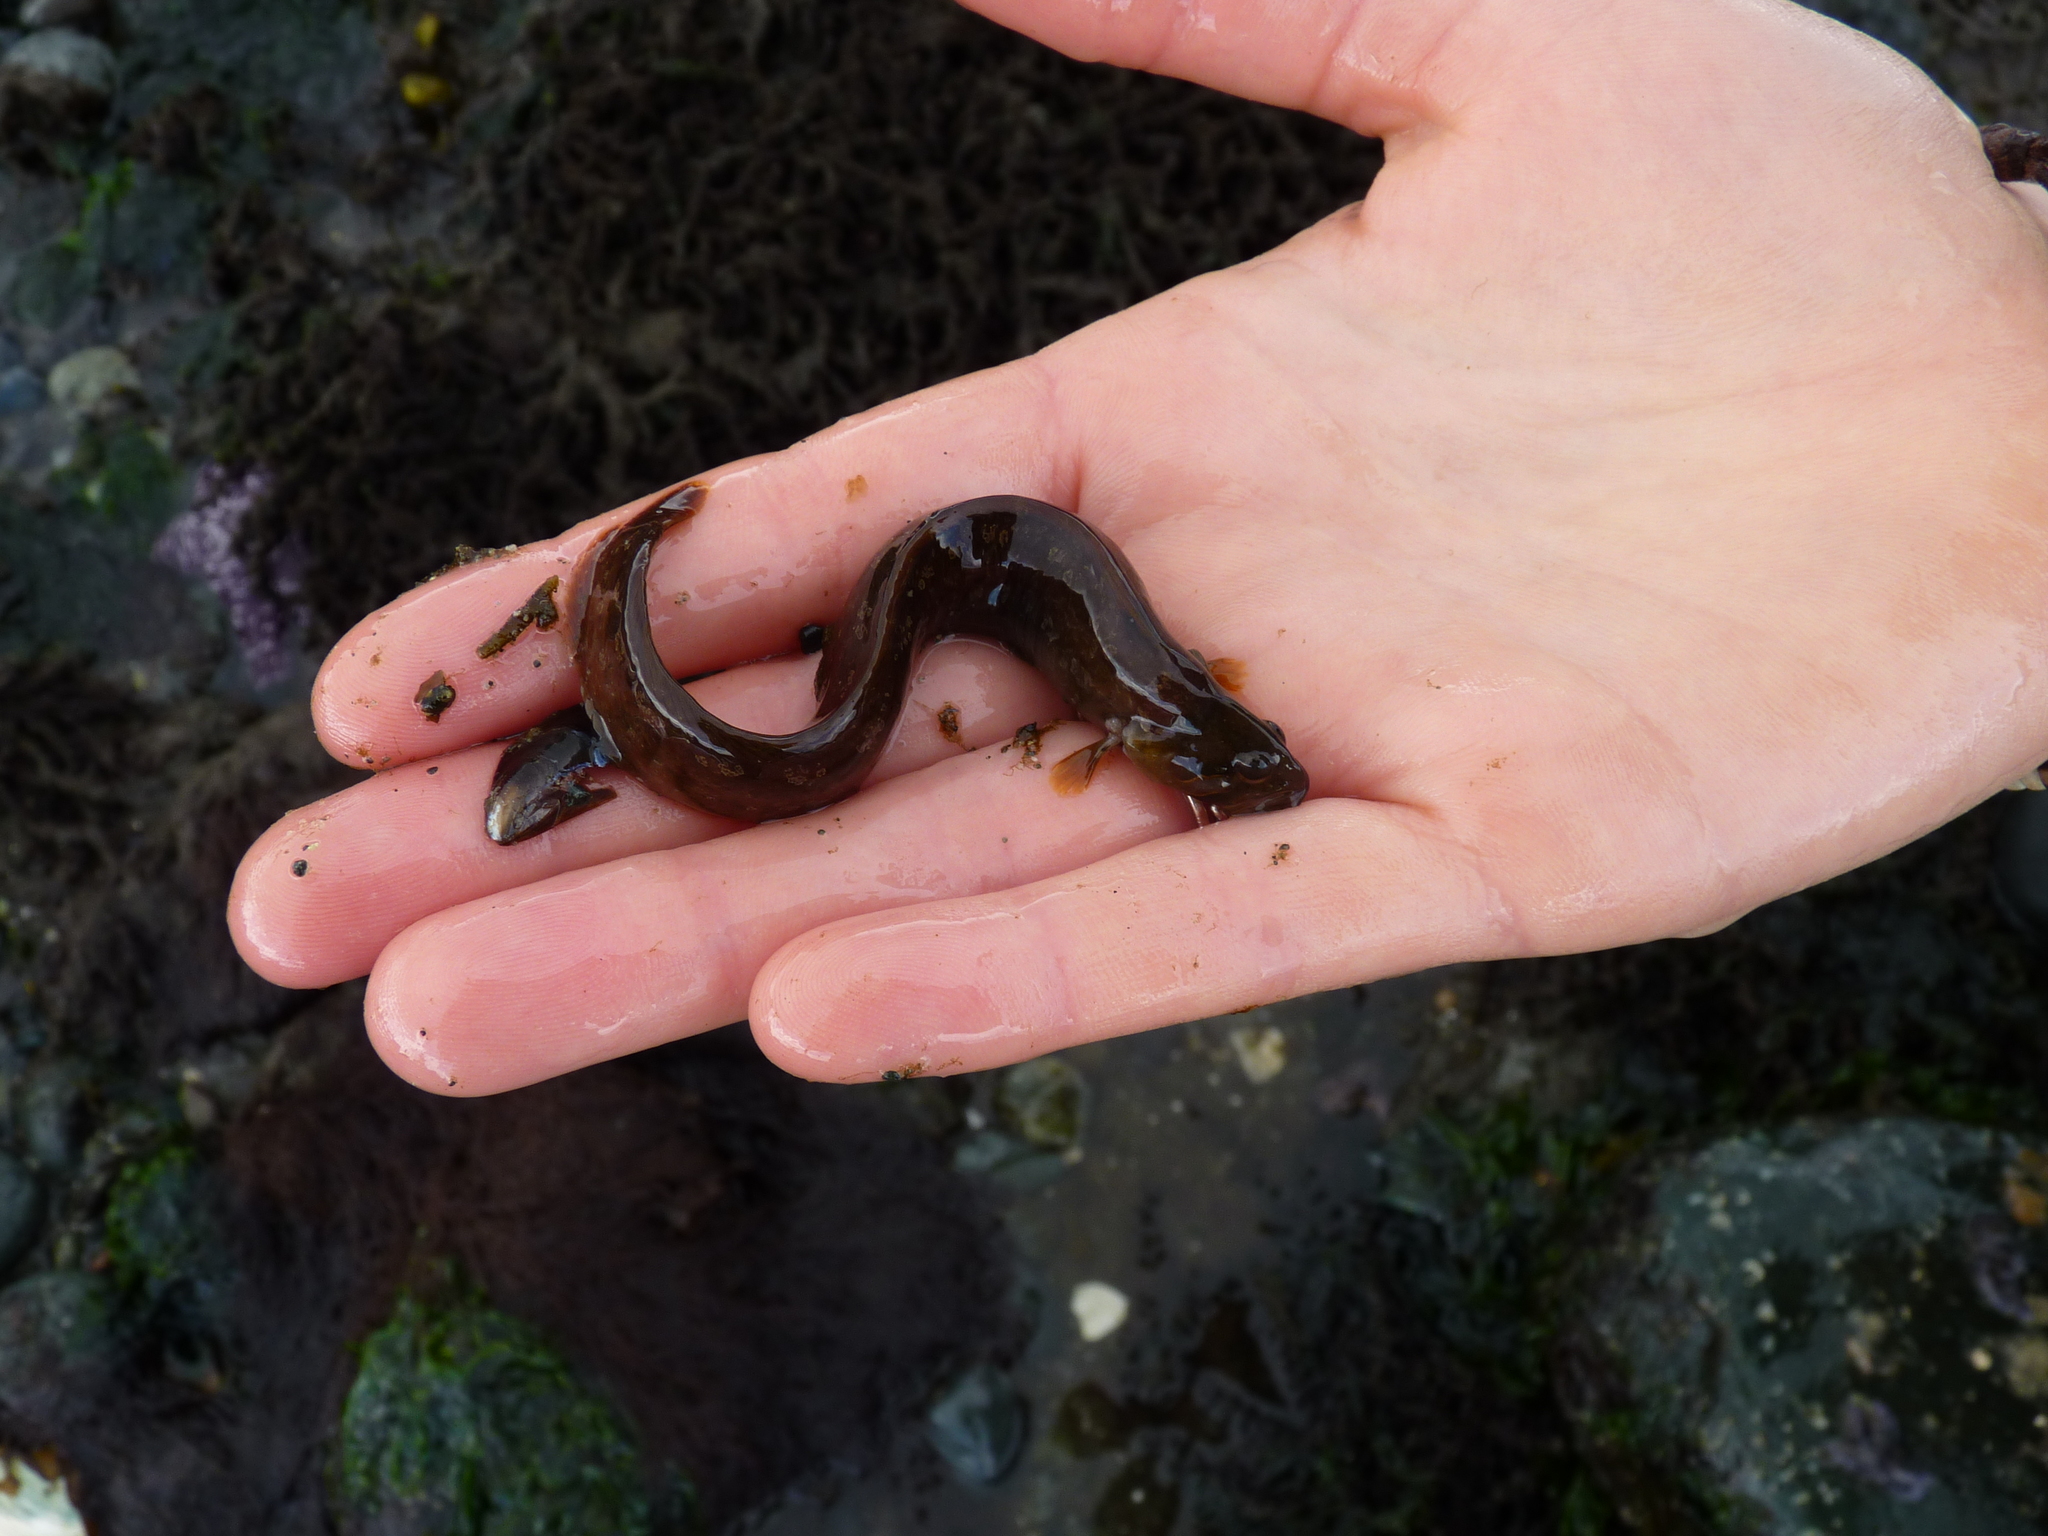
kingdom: Animalia
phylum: Chordata
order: Perciformes
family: Stichaeidae
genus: Anoplarchus
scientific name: Anoplarchus purpurescens
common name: High cockscomb
